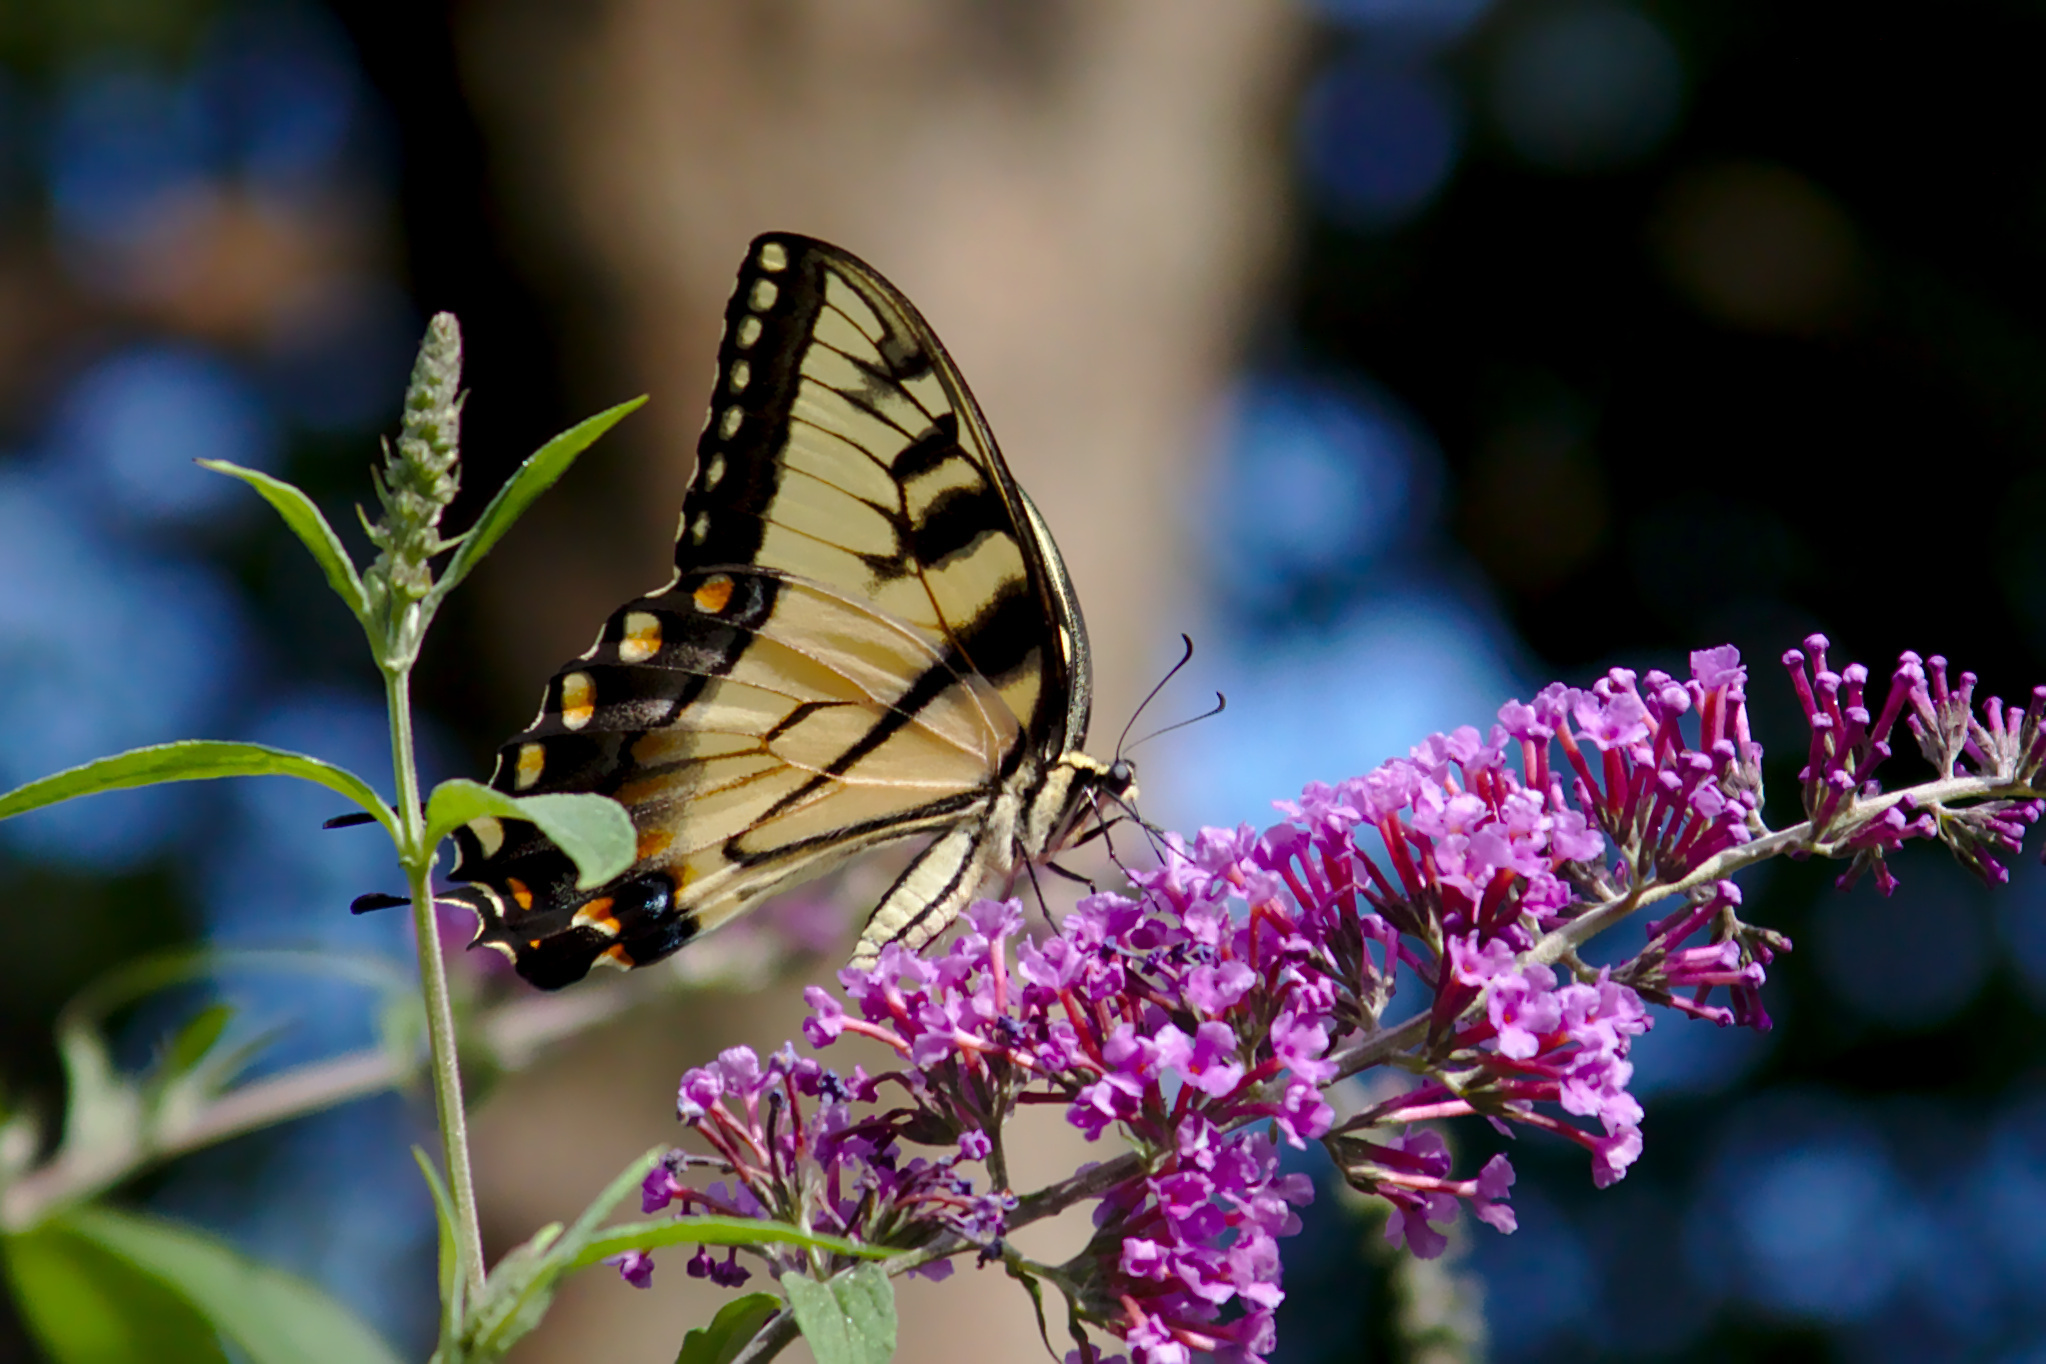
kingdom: Animalia
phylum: Arthropoda
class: Insecta
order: Lepidoptera
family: Papilionidae
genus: Papilio
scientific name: Papilio glaucus
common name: Tiger swallowtail
